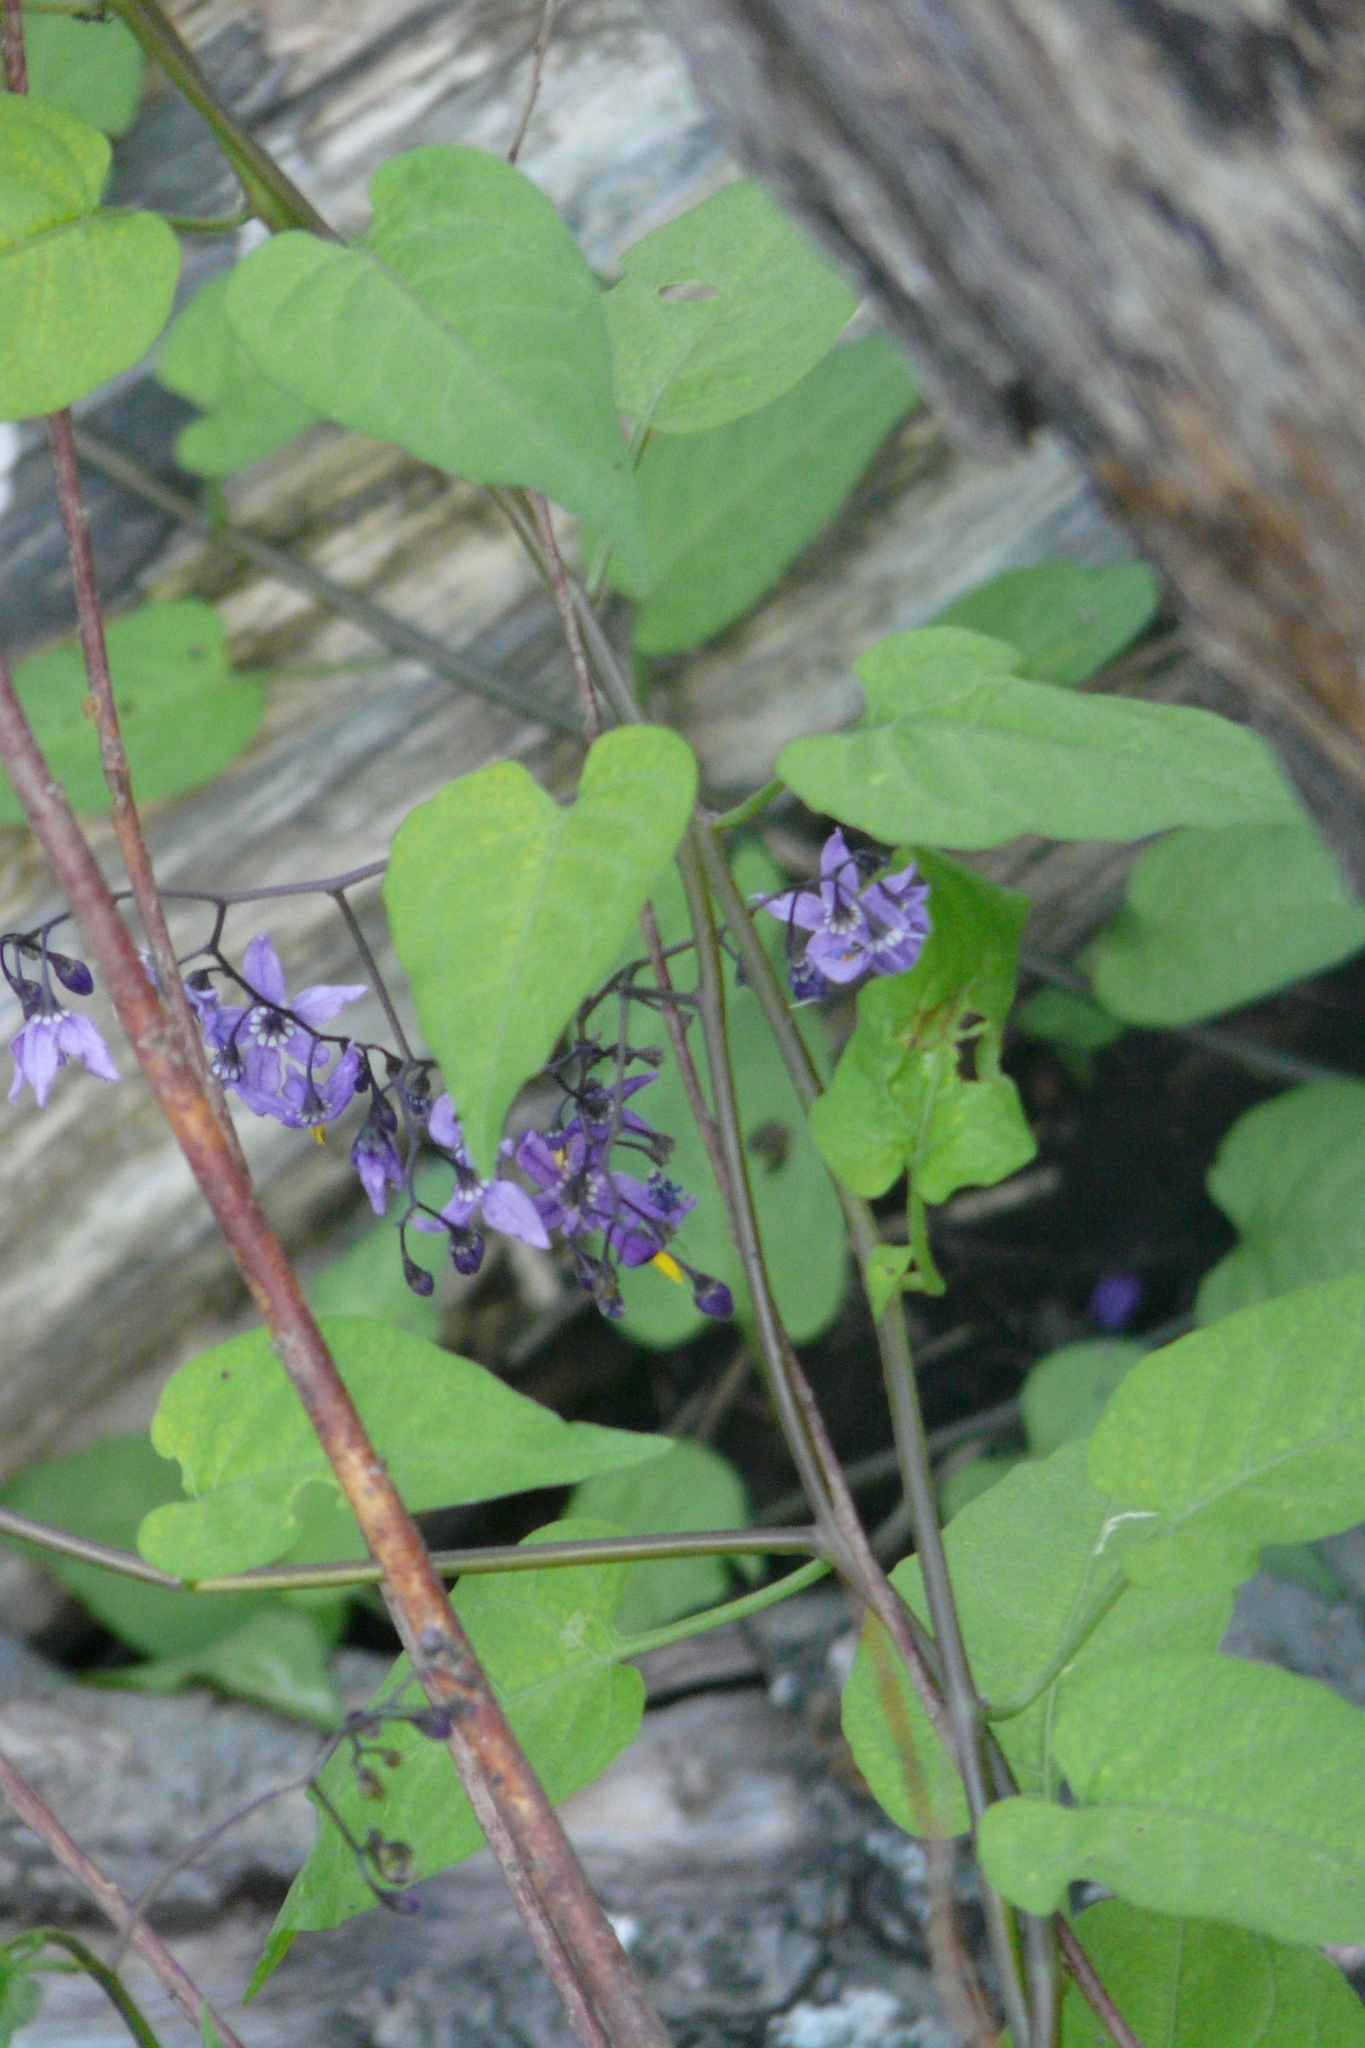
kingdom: Plantae
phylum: Tracheophyta
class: Magnoliopsida
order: Solanales
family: Solanaceae
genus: Solanum
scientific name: Solanum dulcamara
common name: Climbing nightshade
